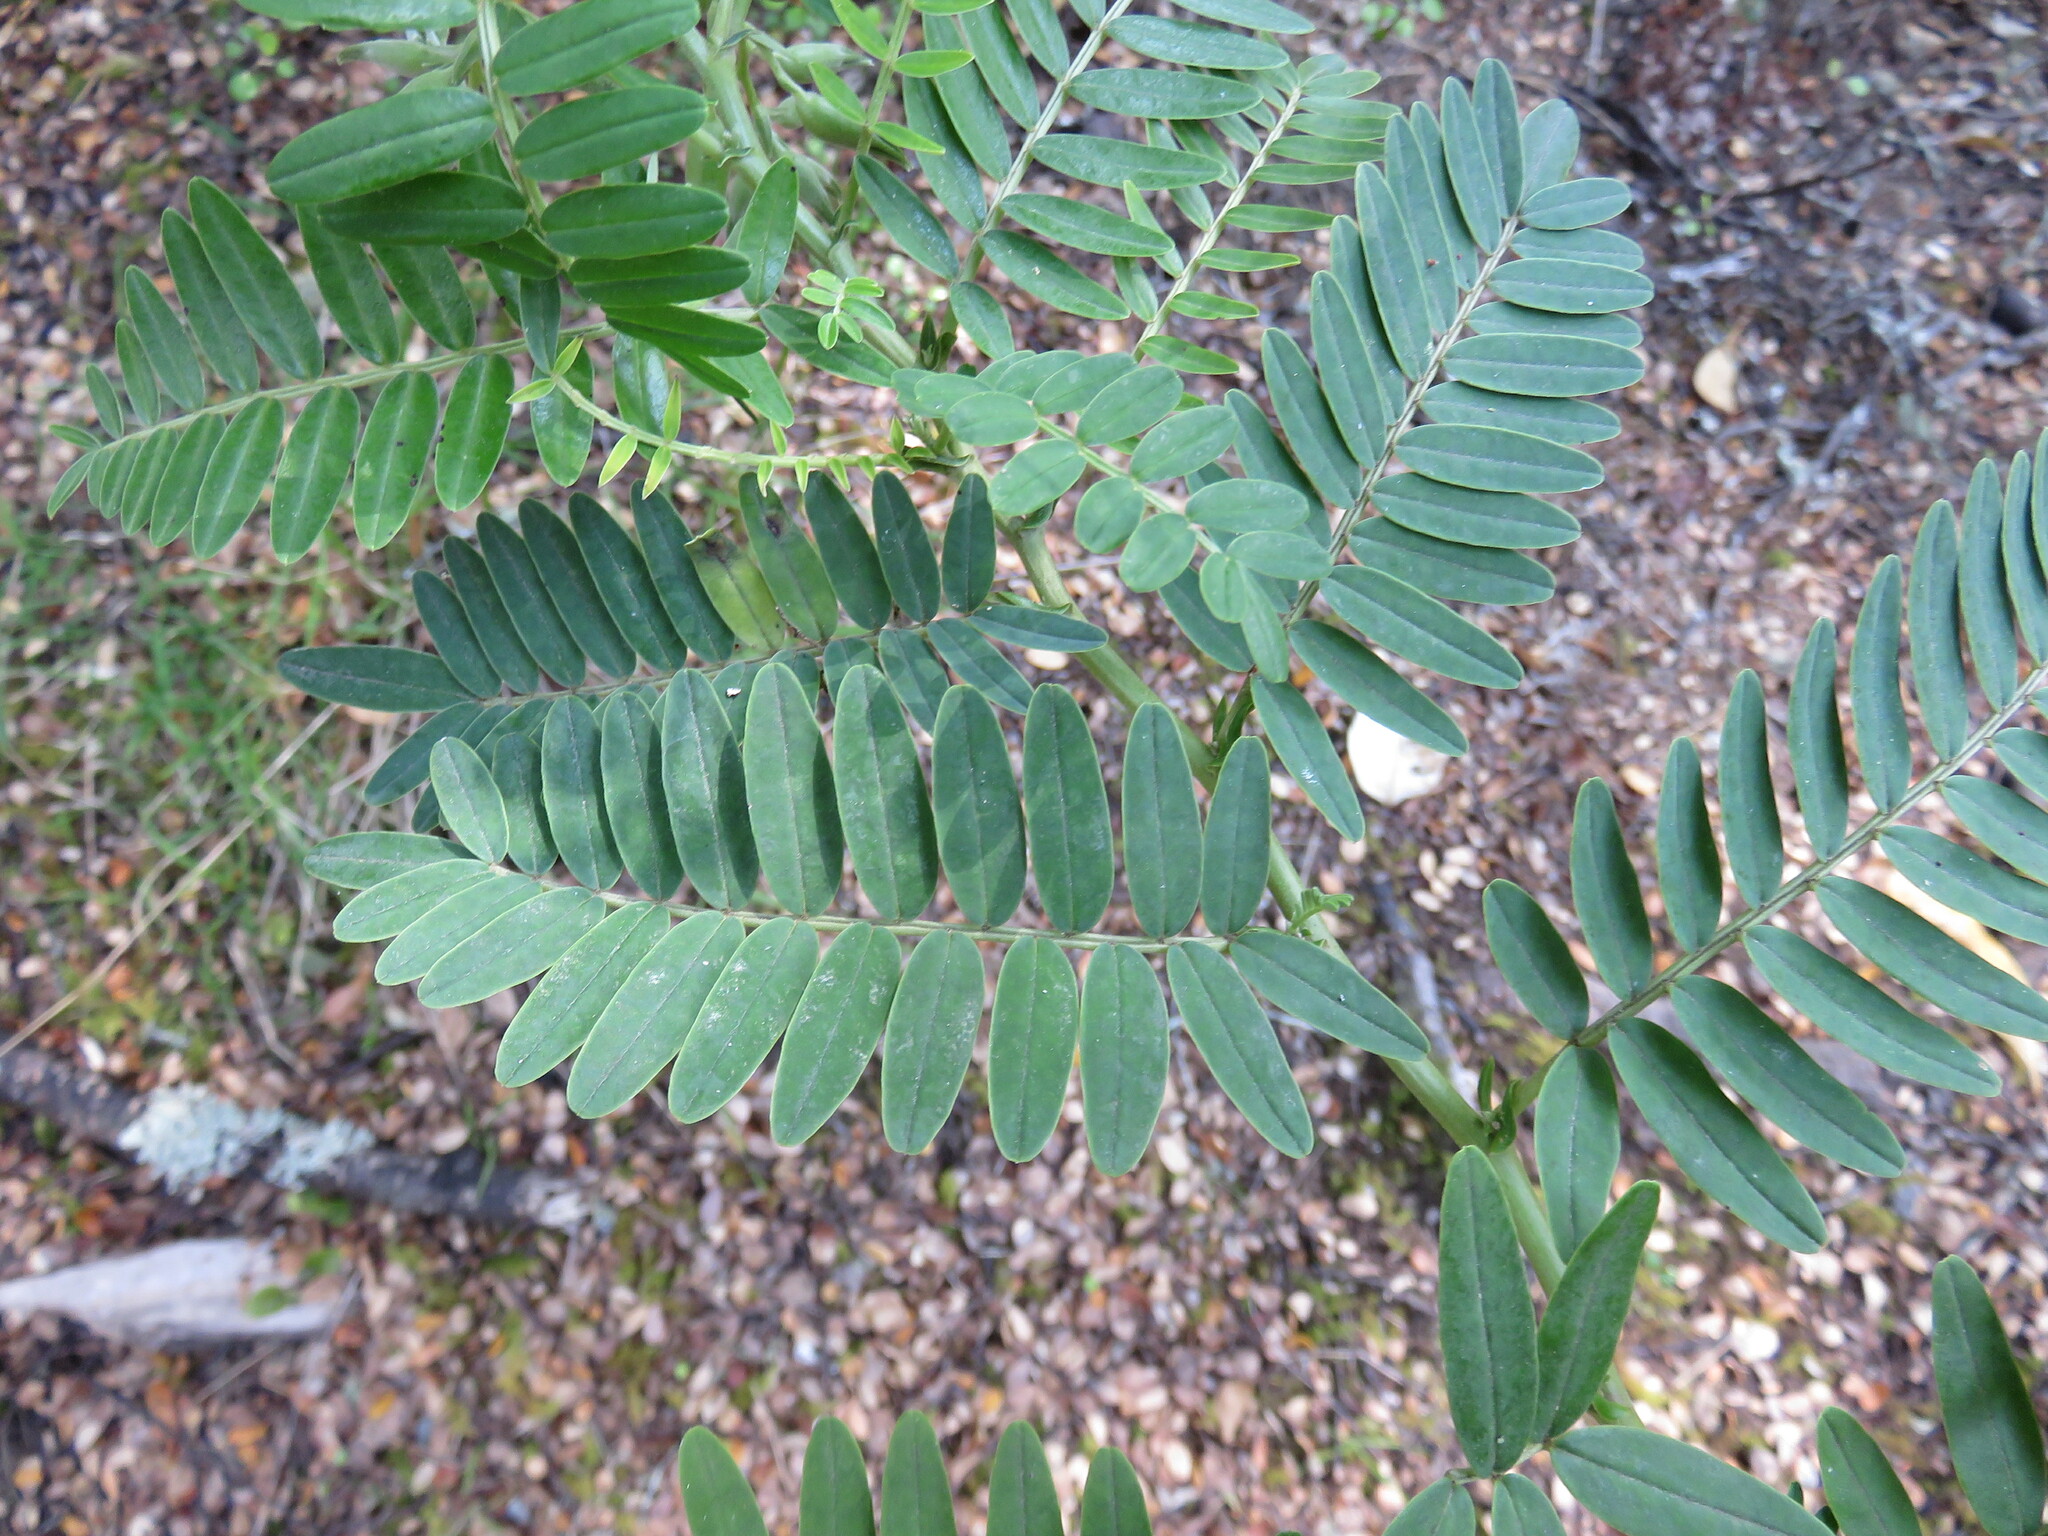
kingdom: Plantae
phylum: Tracheophyta
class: Magnoliopsida
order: Fabales
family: Fabaceae
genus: Clianthus
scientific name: Clianthus puniceus
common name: Kaka-beak
